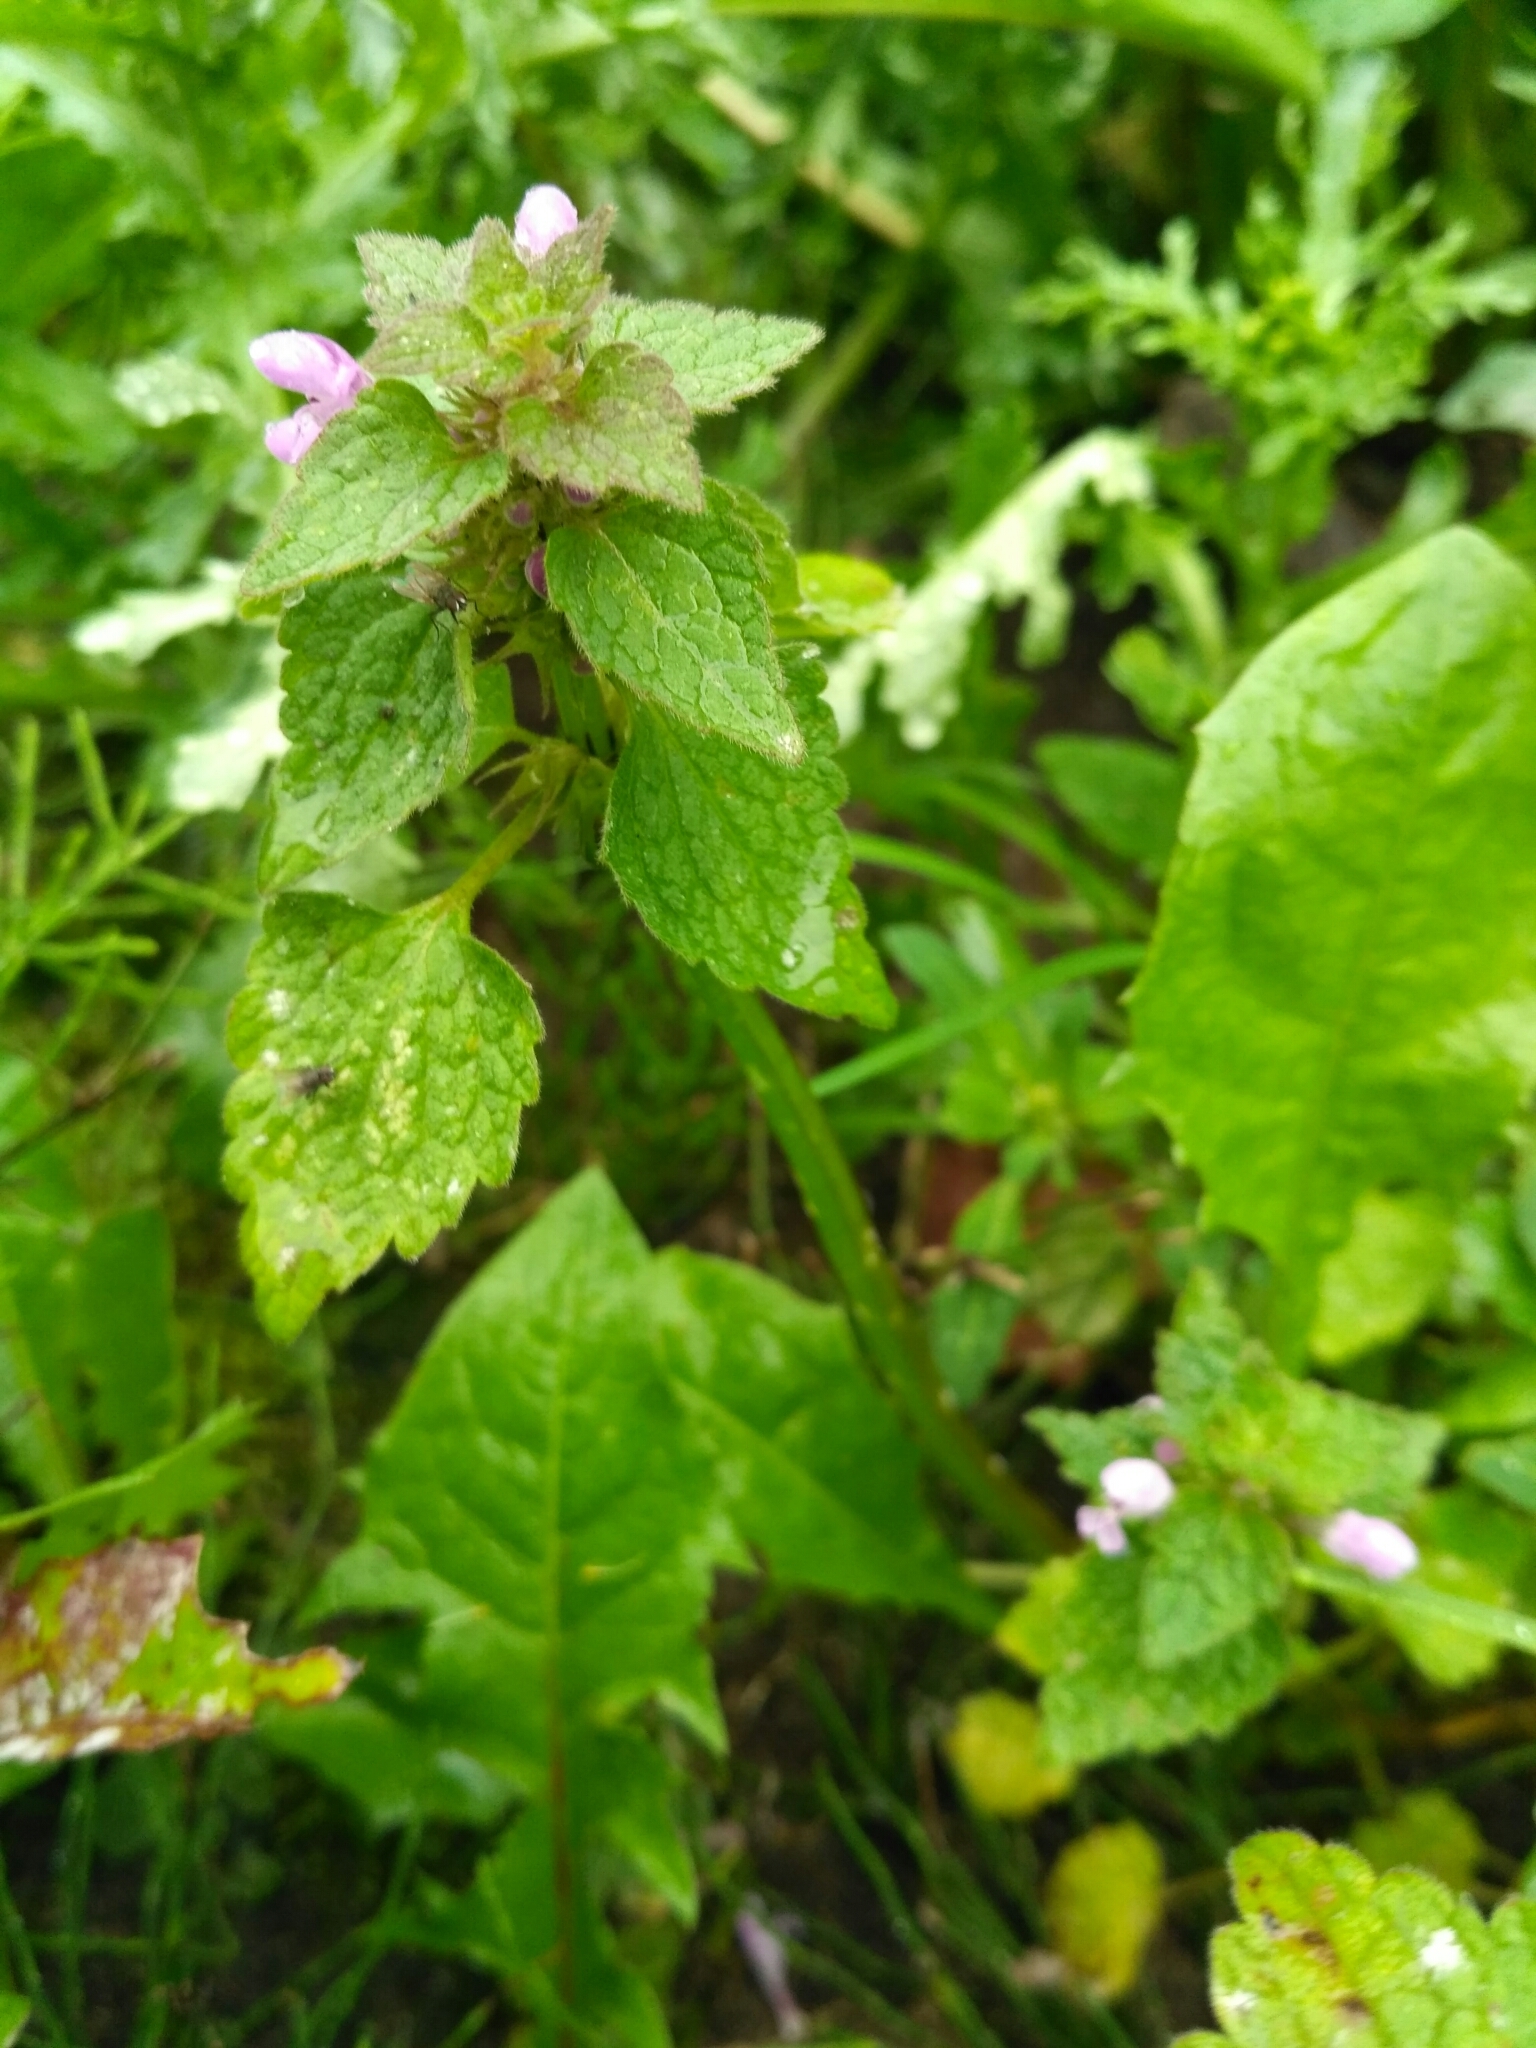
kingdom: Plantae
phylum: Tracheophyta
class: Magnoliopsida
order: Lamiales
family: Lamiaceae
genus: Lamium
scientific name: Lamium purpureum
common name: Red dead-nettle
